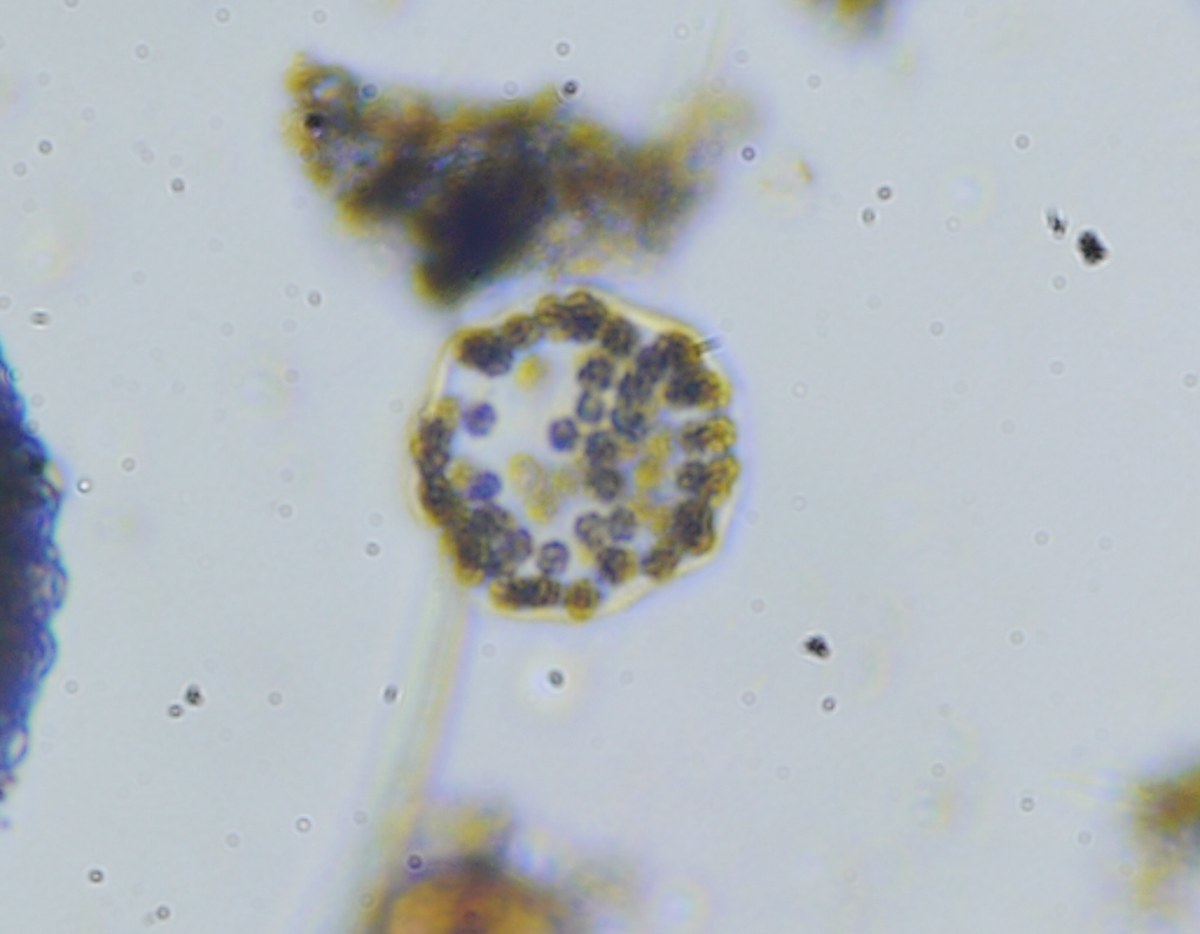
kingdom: Bacteria
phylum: Cyanobacteria
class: Cyanobacteriia
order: Cyanobacteriales
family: Microcystaceae
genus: Microcystis
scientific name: Microcystis wesenbergii
